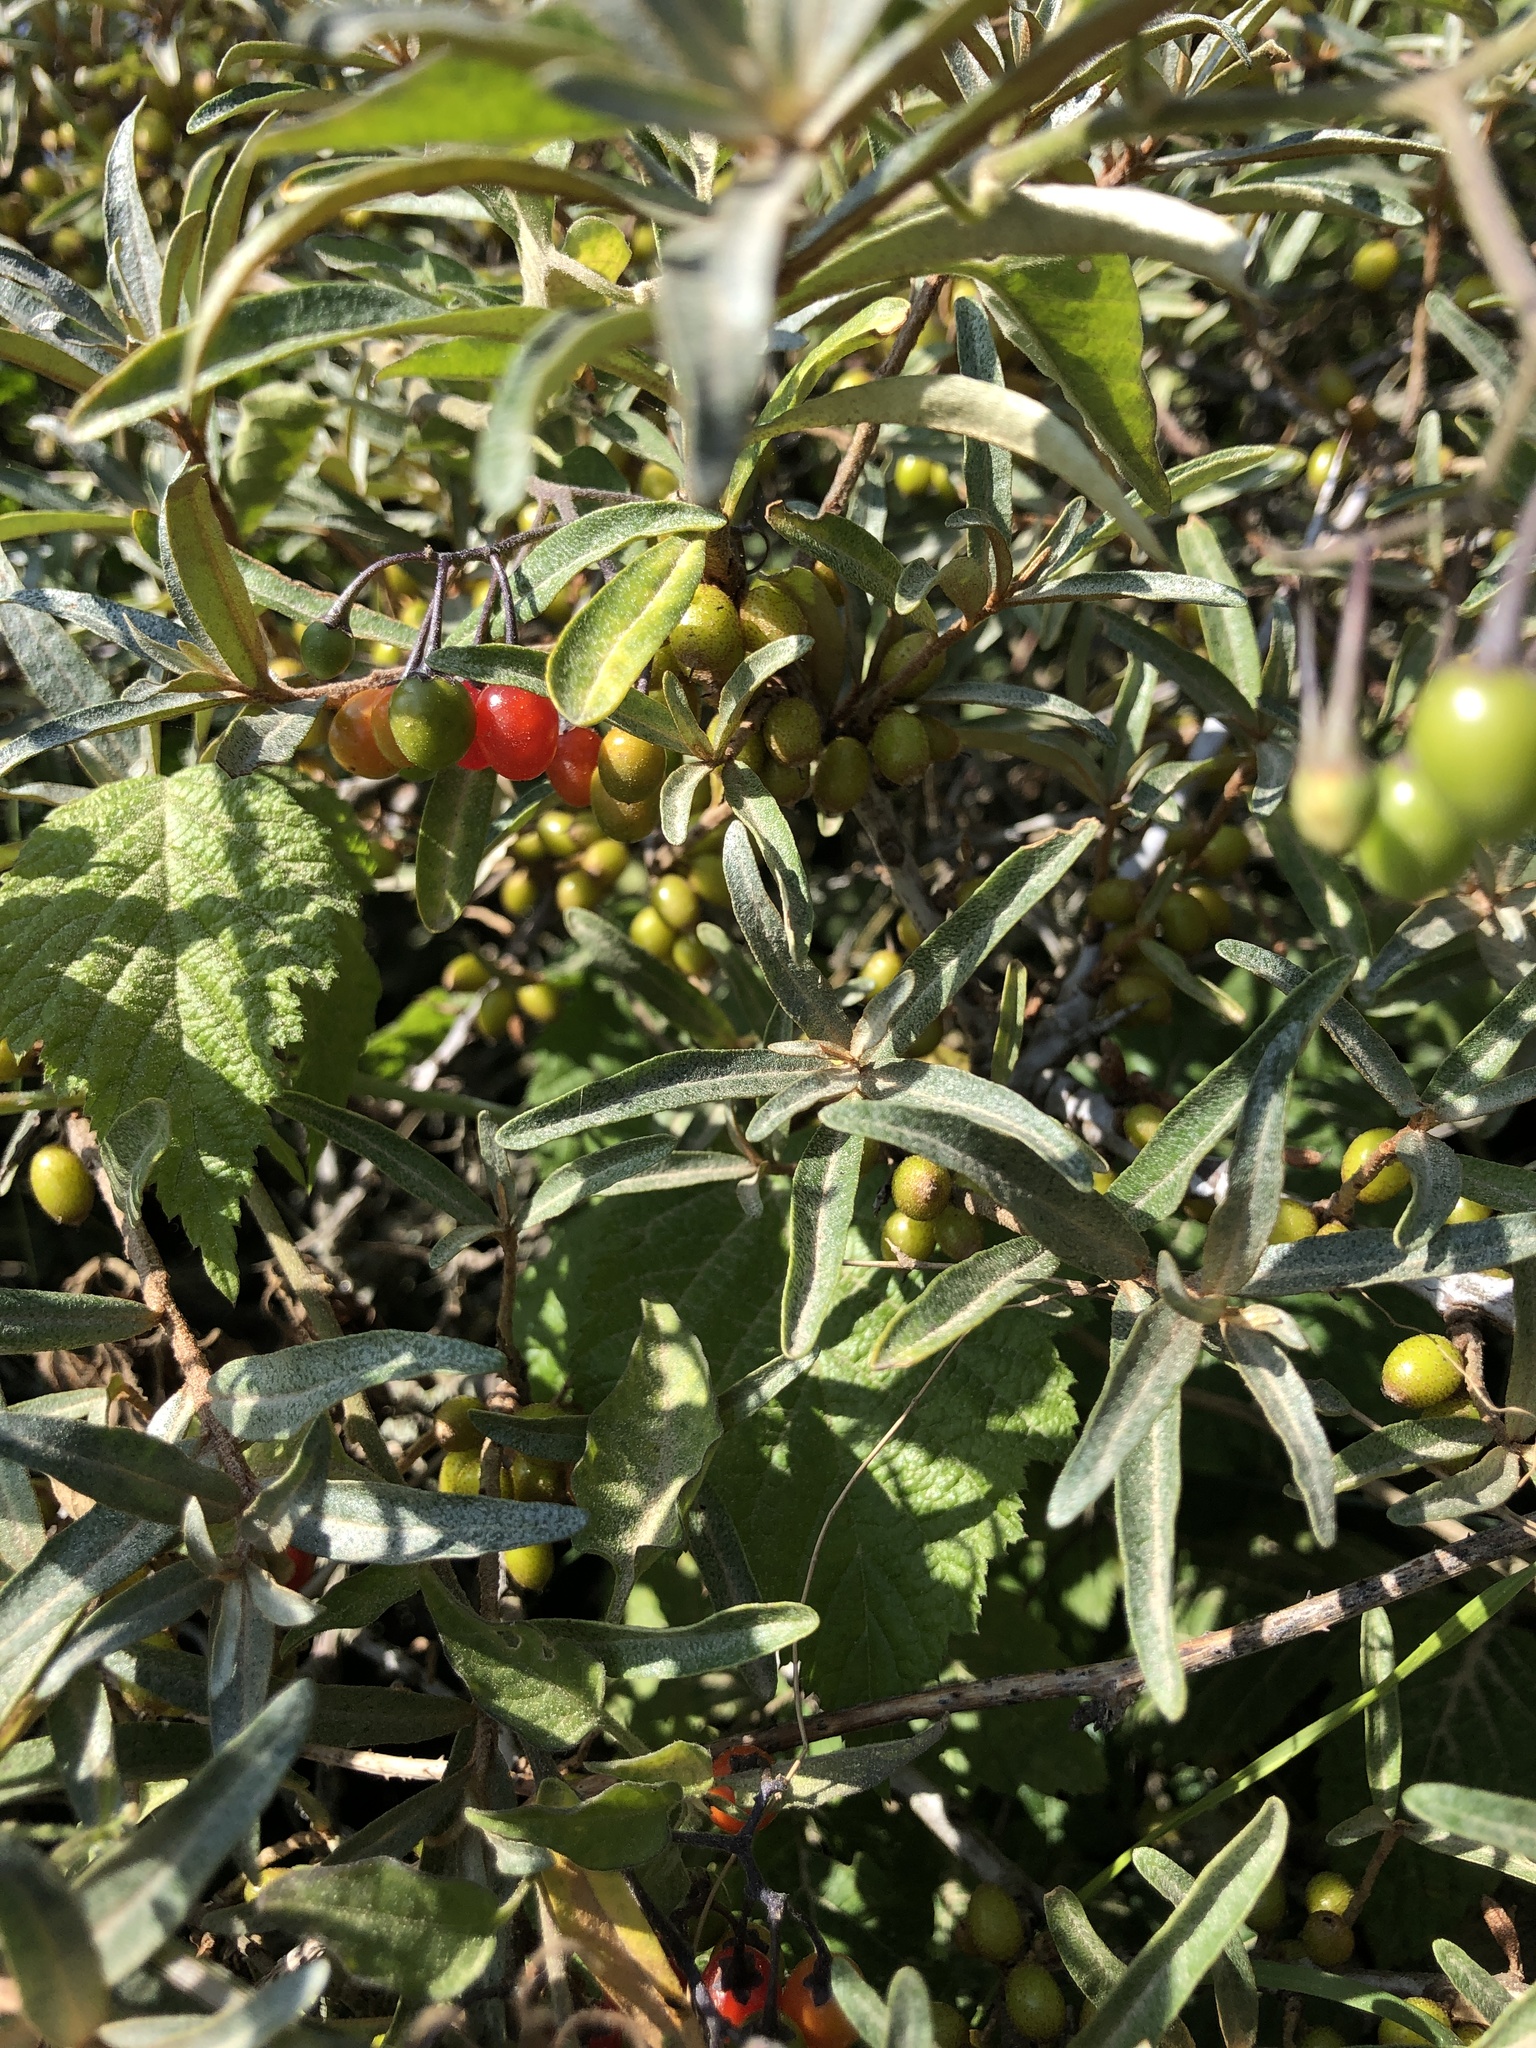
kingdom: Plantae
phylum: Tracheophyta
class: Magnoliopsida
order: Rosales
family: Elaeagnaceae
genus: Hippophae
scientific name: Hippophae rhamnoides
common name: Sea-buckthorn
